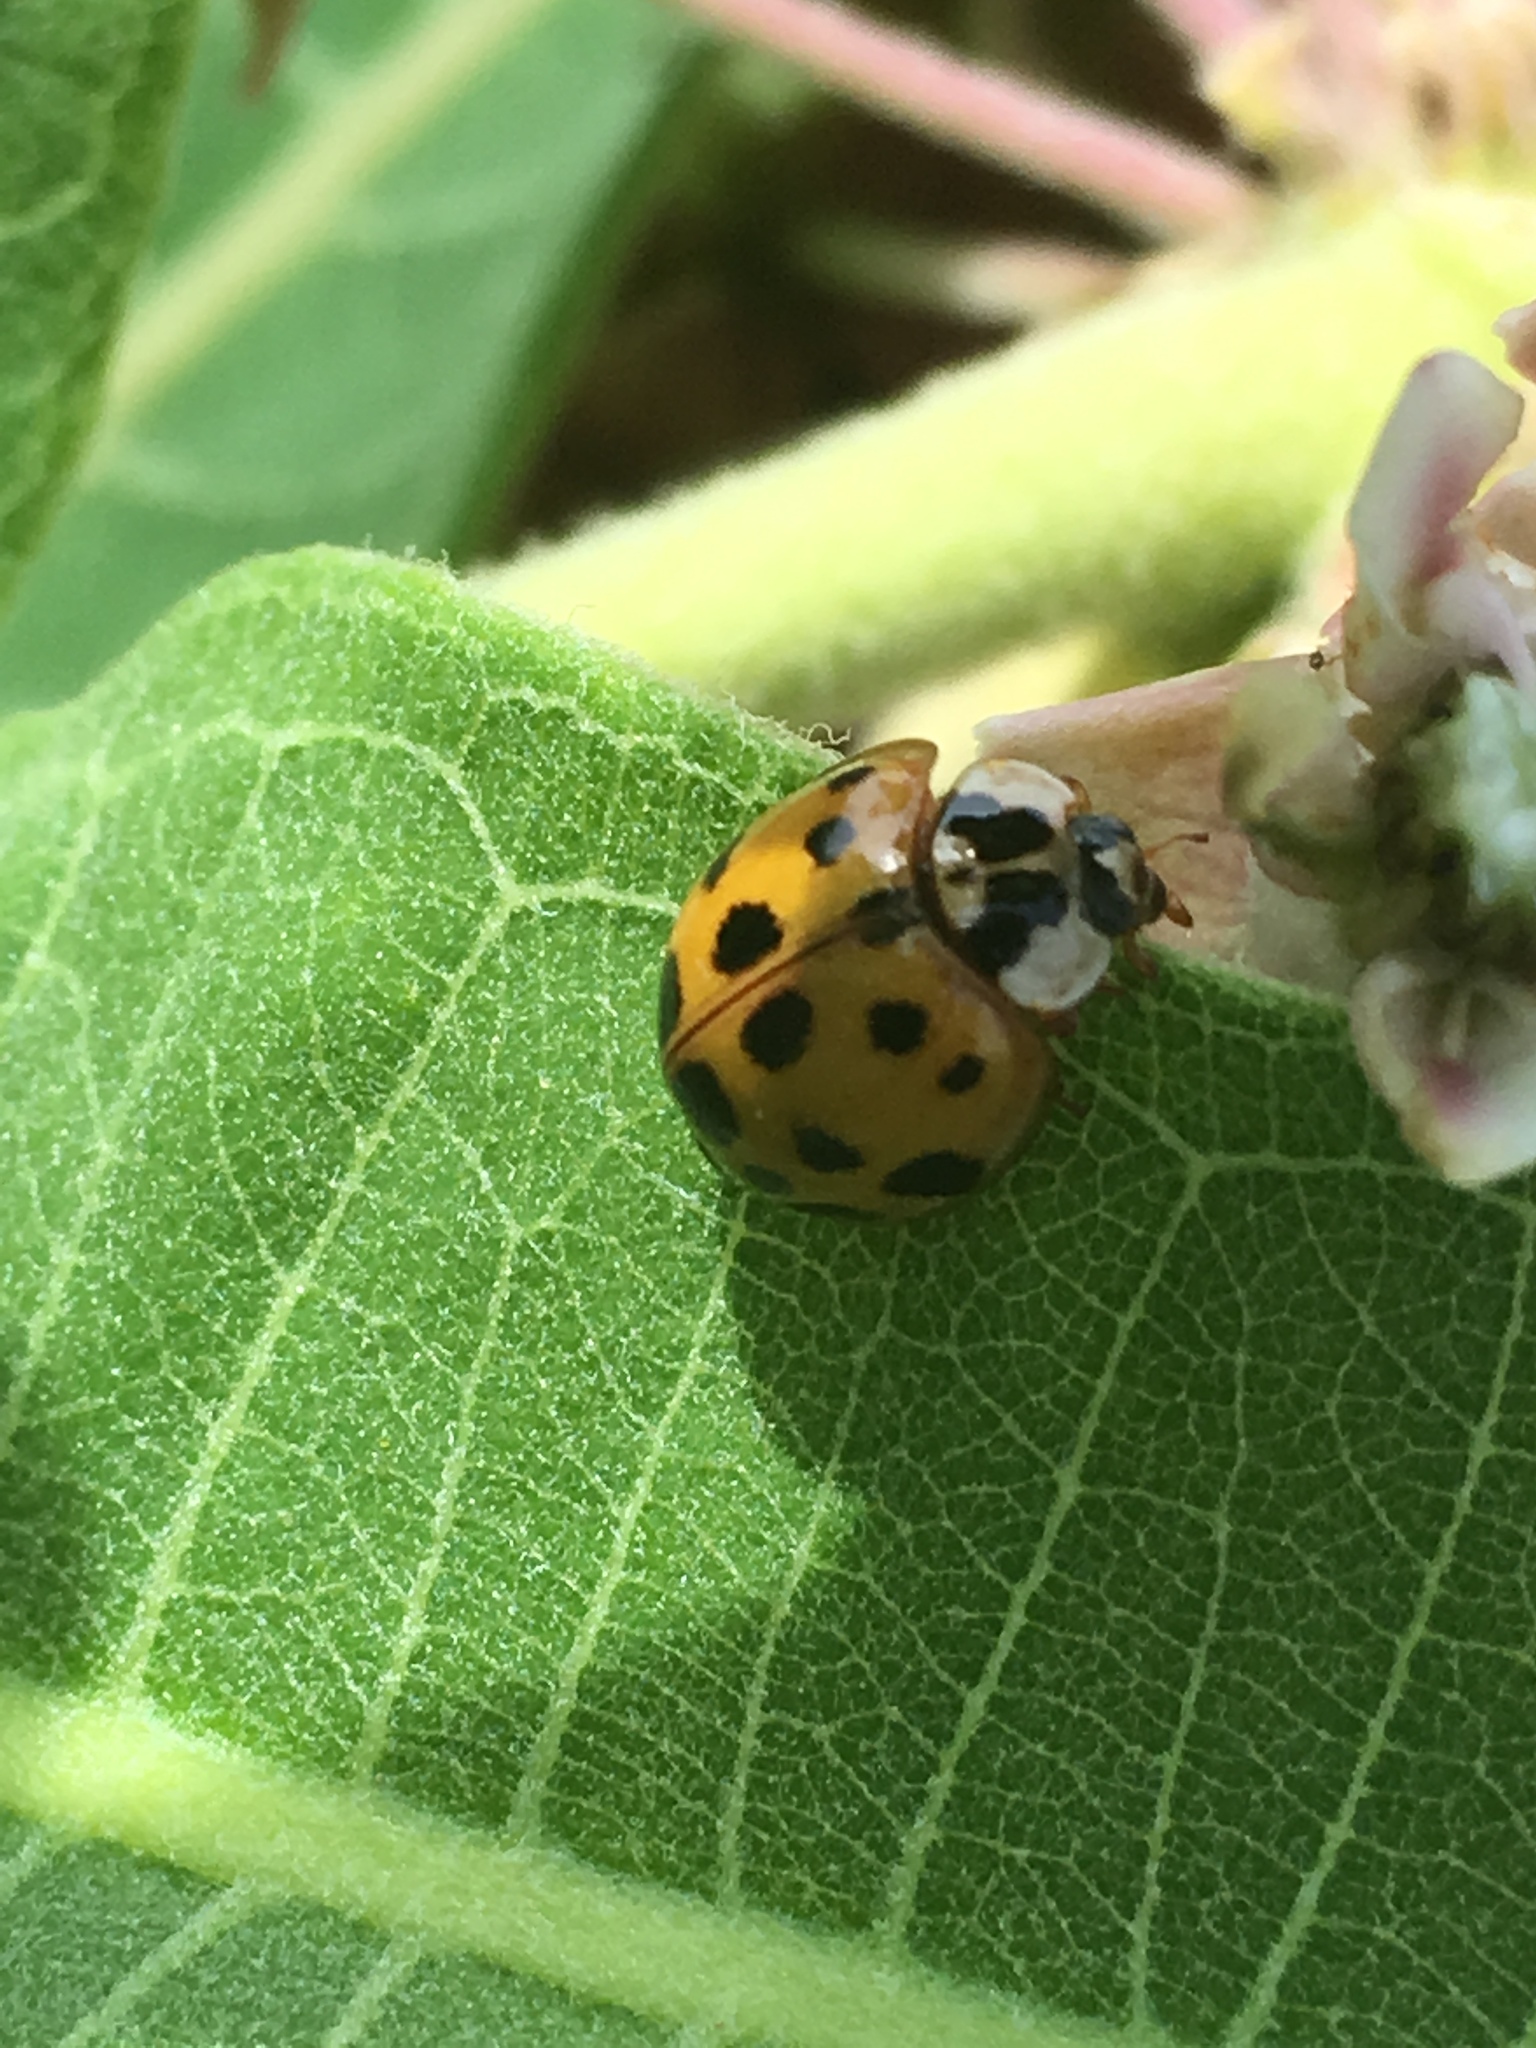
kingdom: Animalia
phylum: Arthropoda
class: Insecta
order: Coleoptera
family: Coccinellidae
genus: Harmonia
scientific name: Harmonia axyridis
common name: Harlequin ladybird
